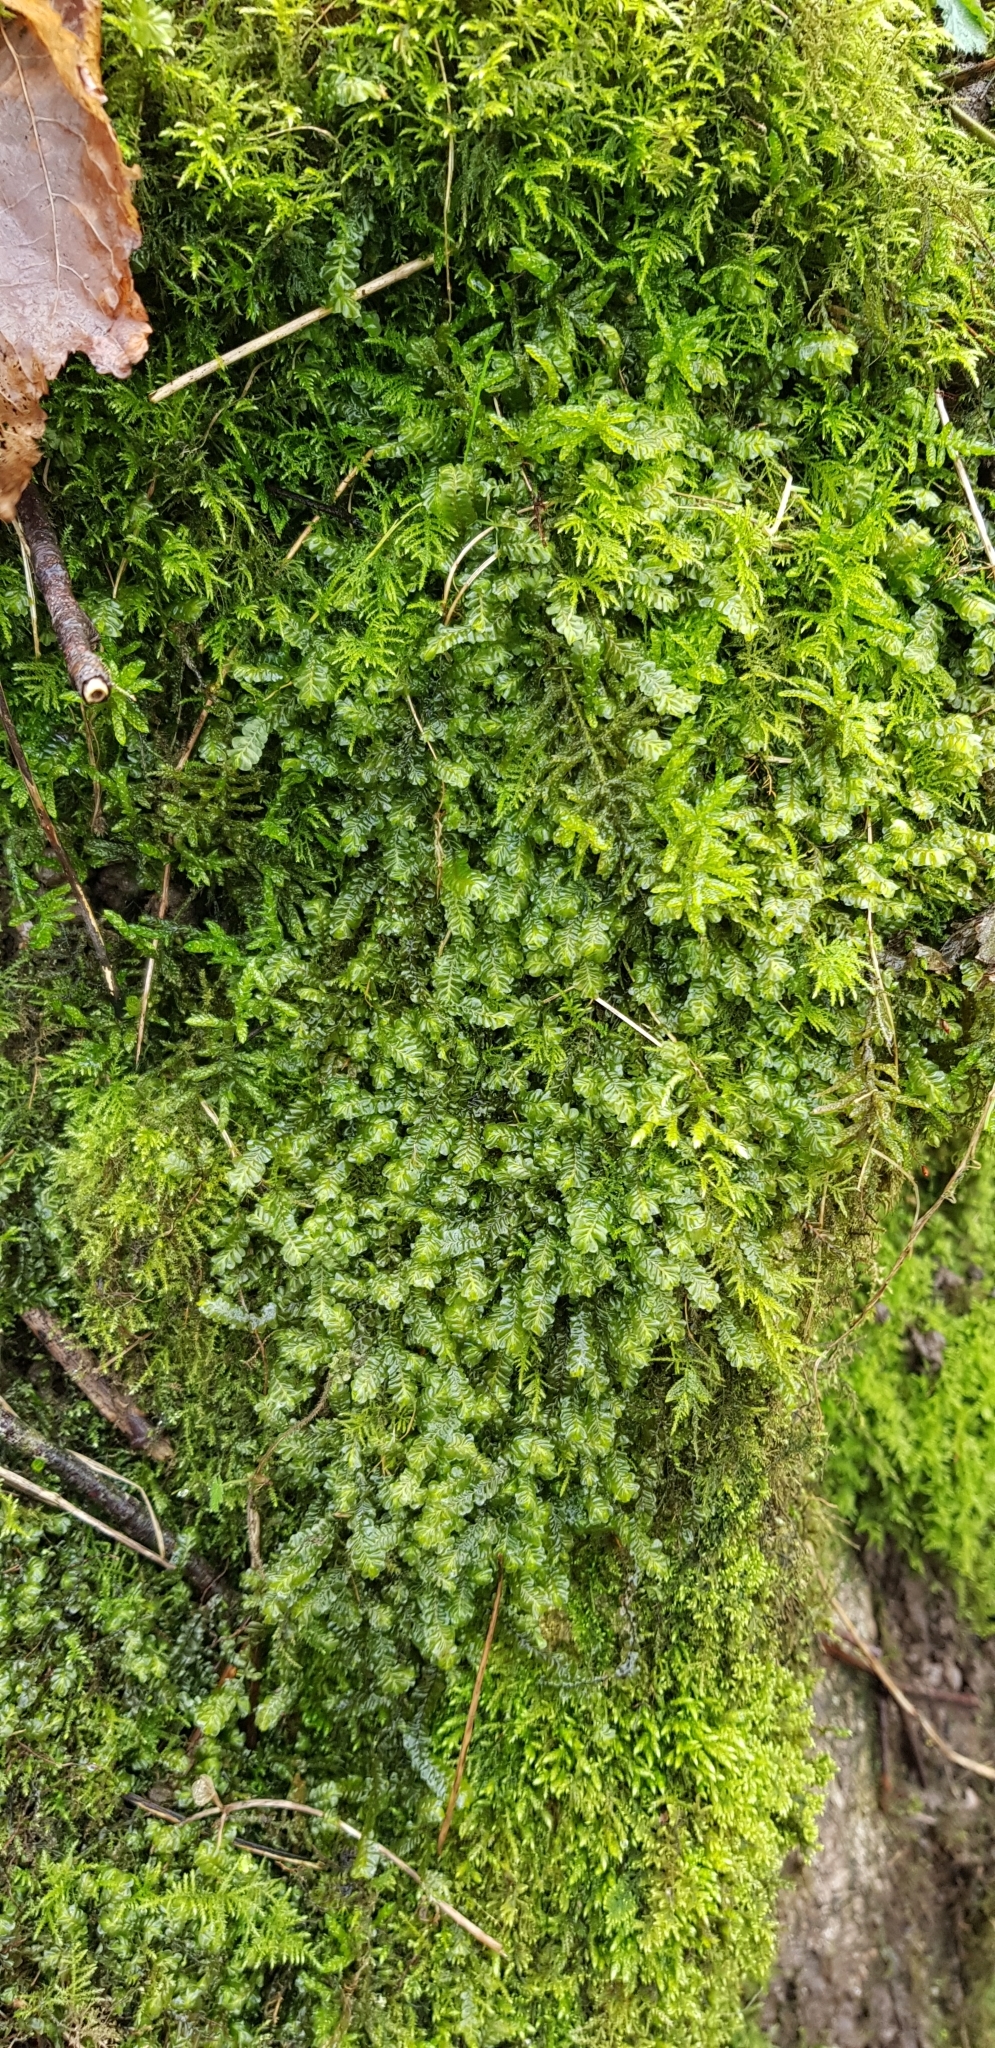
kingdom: Plantae
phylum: Marchantiophyta
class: Jungermanniopsida
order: Jungermanniales
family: Plagiochilaceae
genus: Plagiochila
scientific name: Plagiochila asplenioides
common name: Greater featherwort
